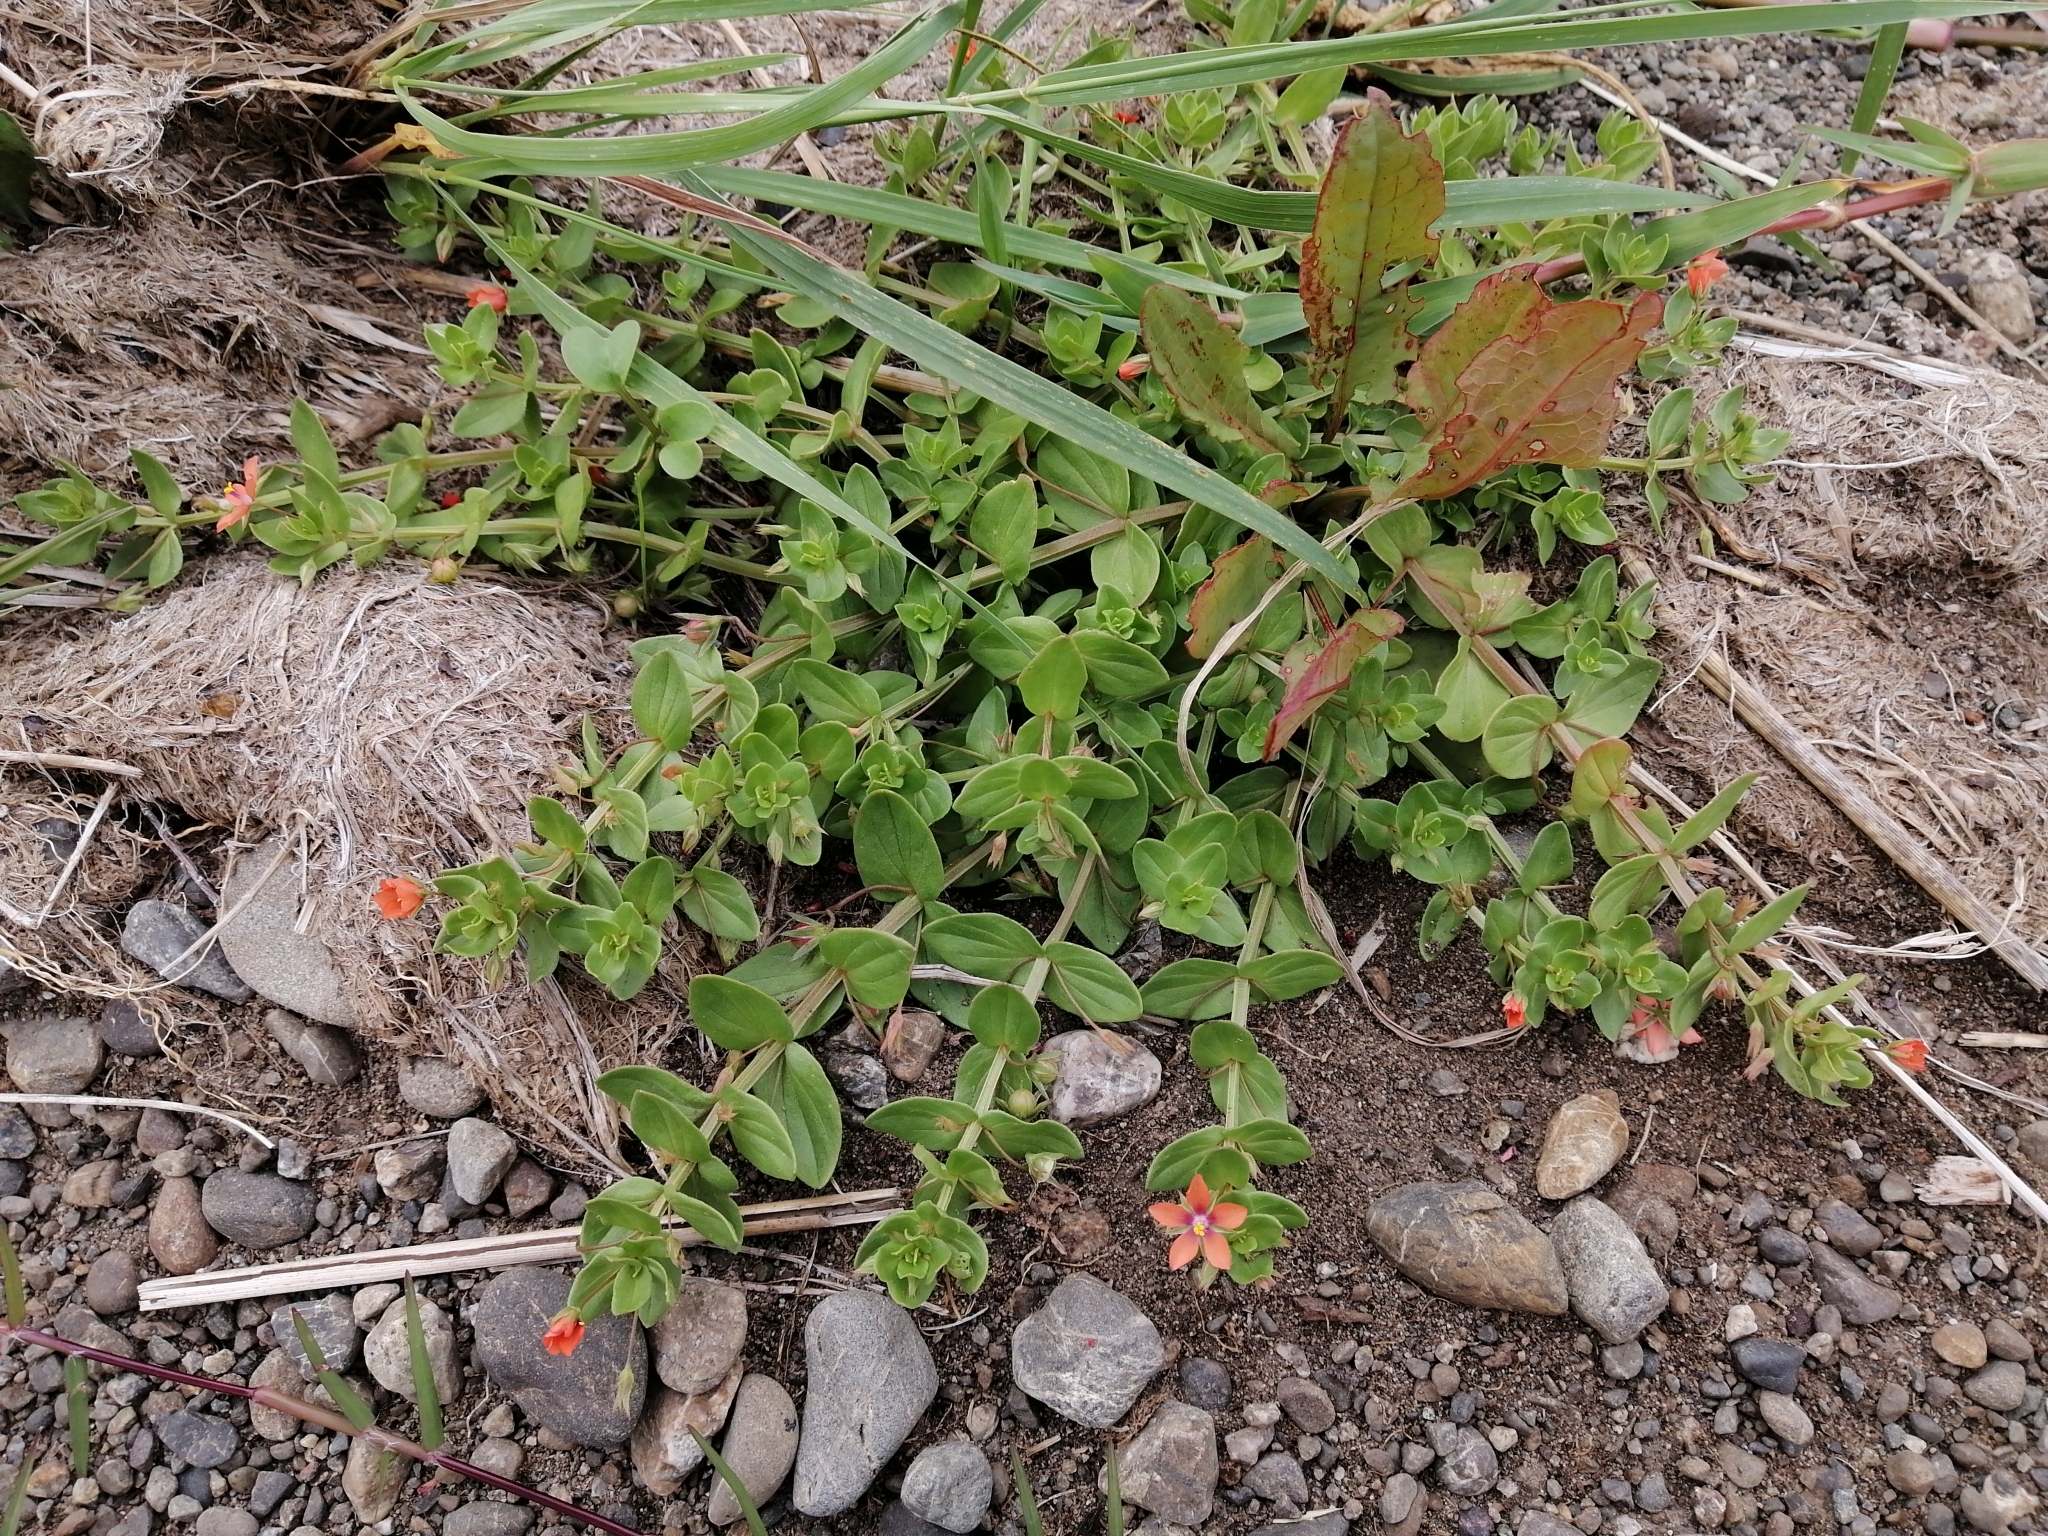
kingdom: Plantae
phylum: Tracheophyta
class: Magnoliopsida
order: Ericales
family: Primulaceae
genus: Lysimachia
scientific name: Lysimachia arvensis
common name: Scarlet pimpernel
